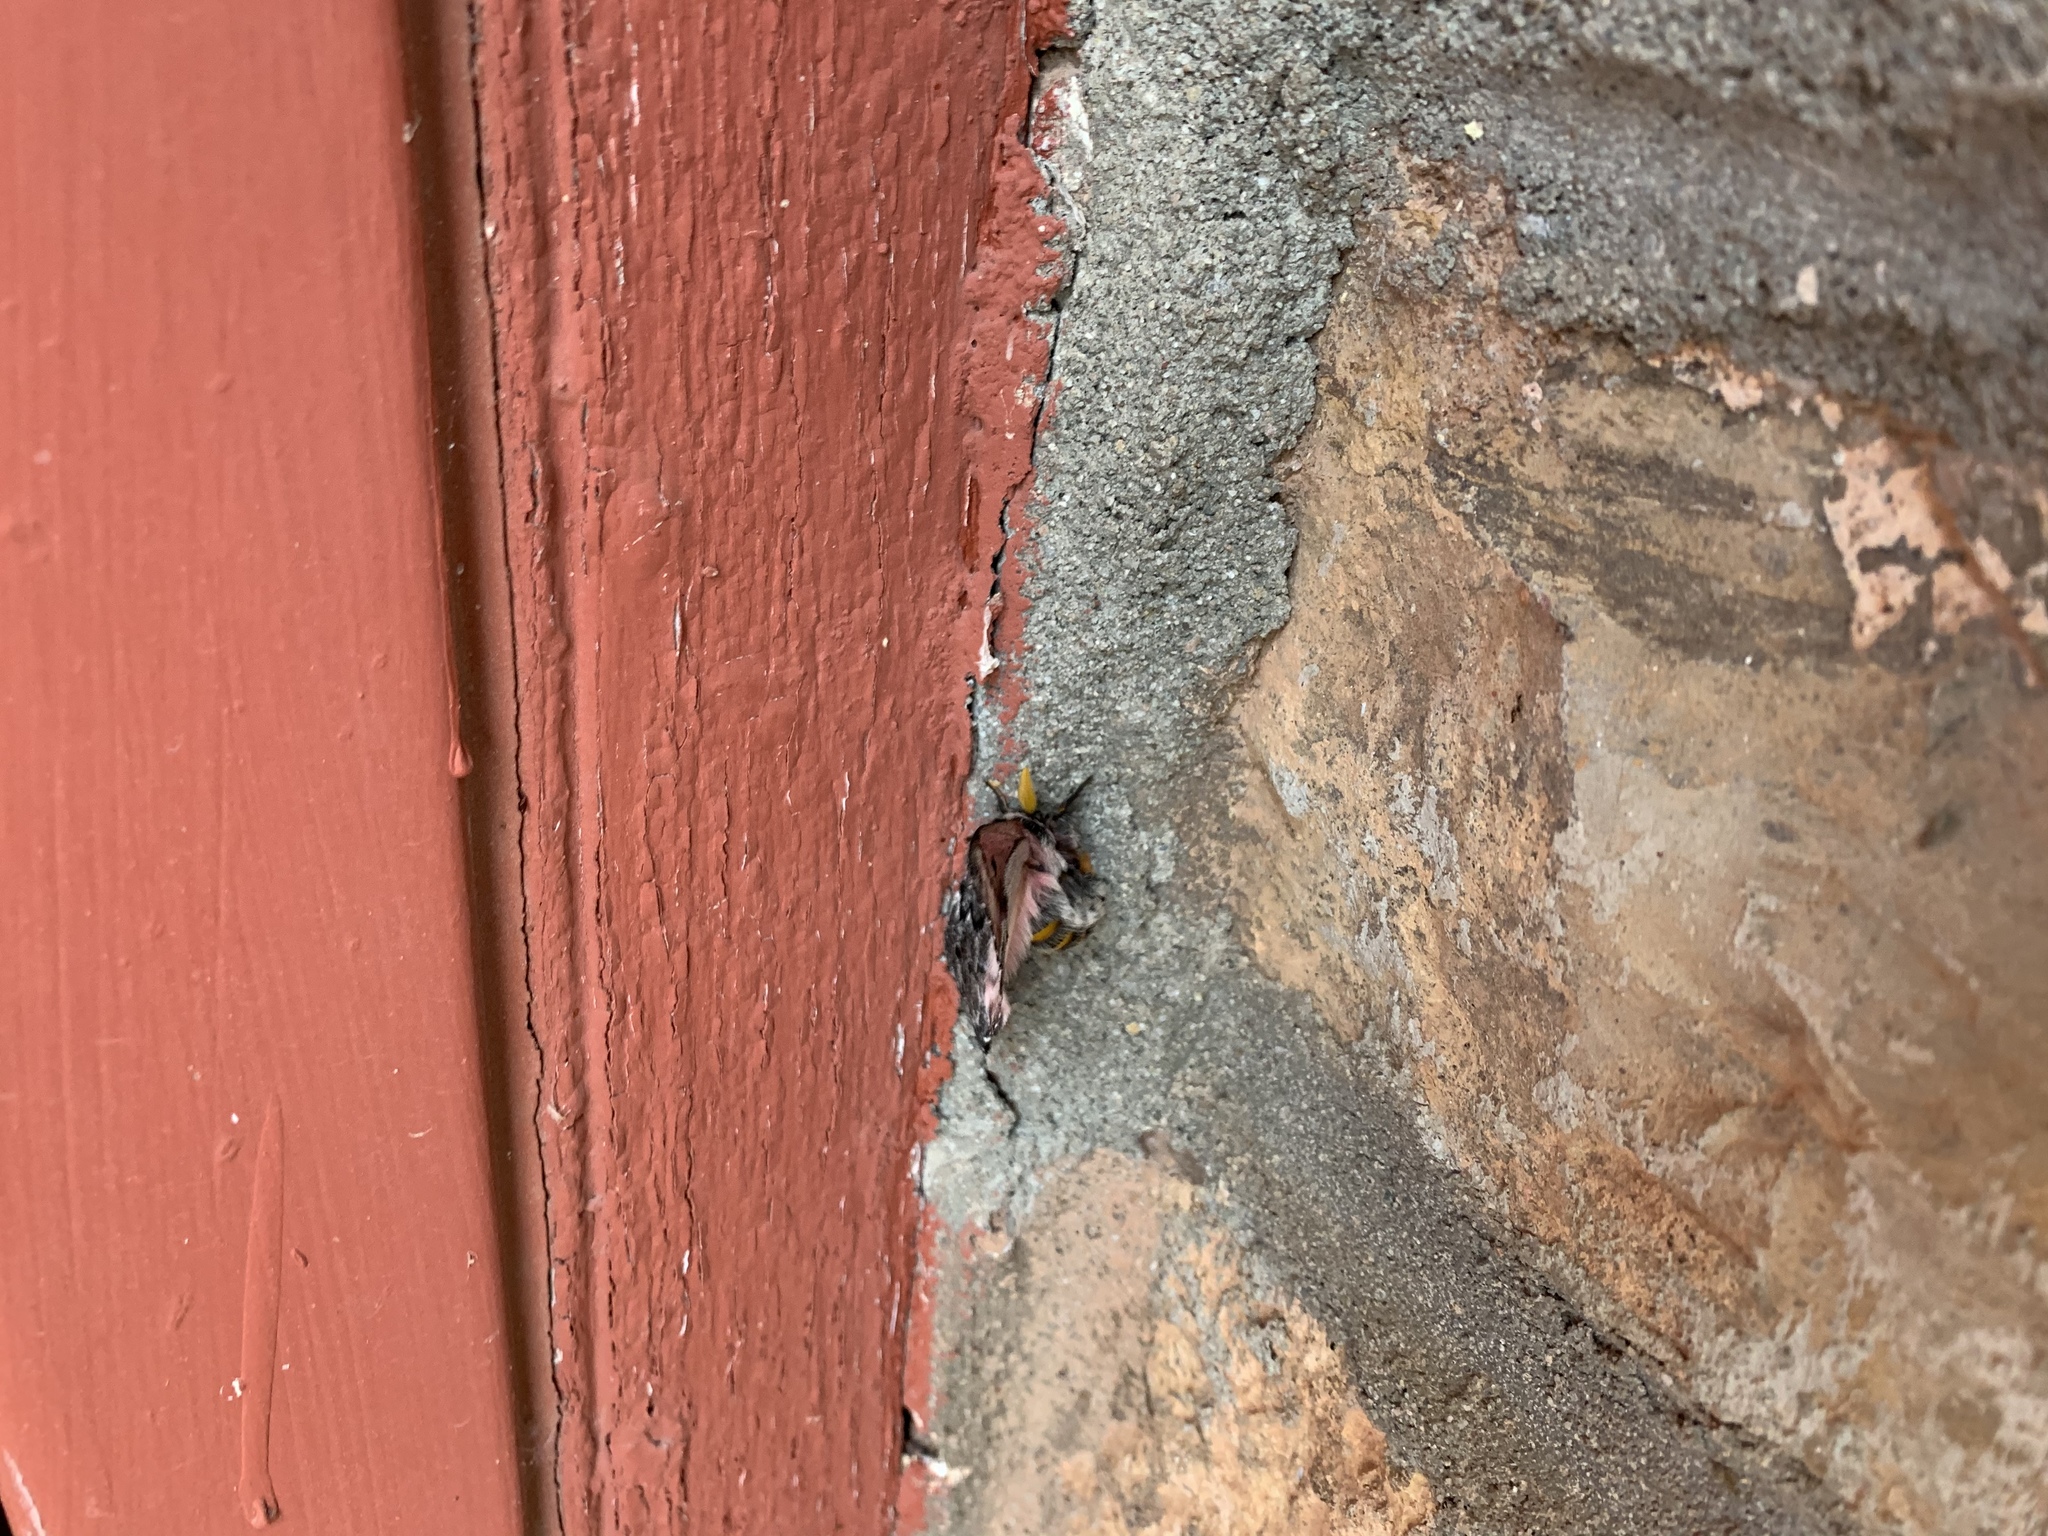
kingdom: Animalia
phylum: Arthropoda
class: Insecta
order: Lepidoptera
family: Saturniidae
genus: Coloradia
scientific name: Coloradia pandora
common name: Pandora pinemoth
